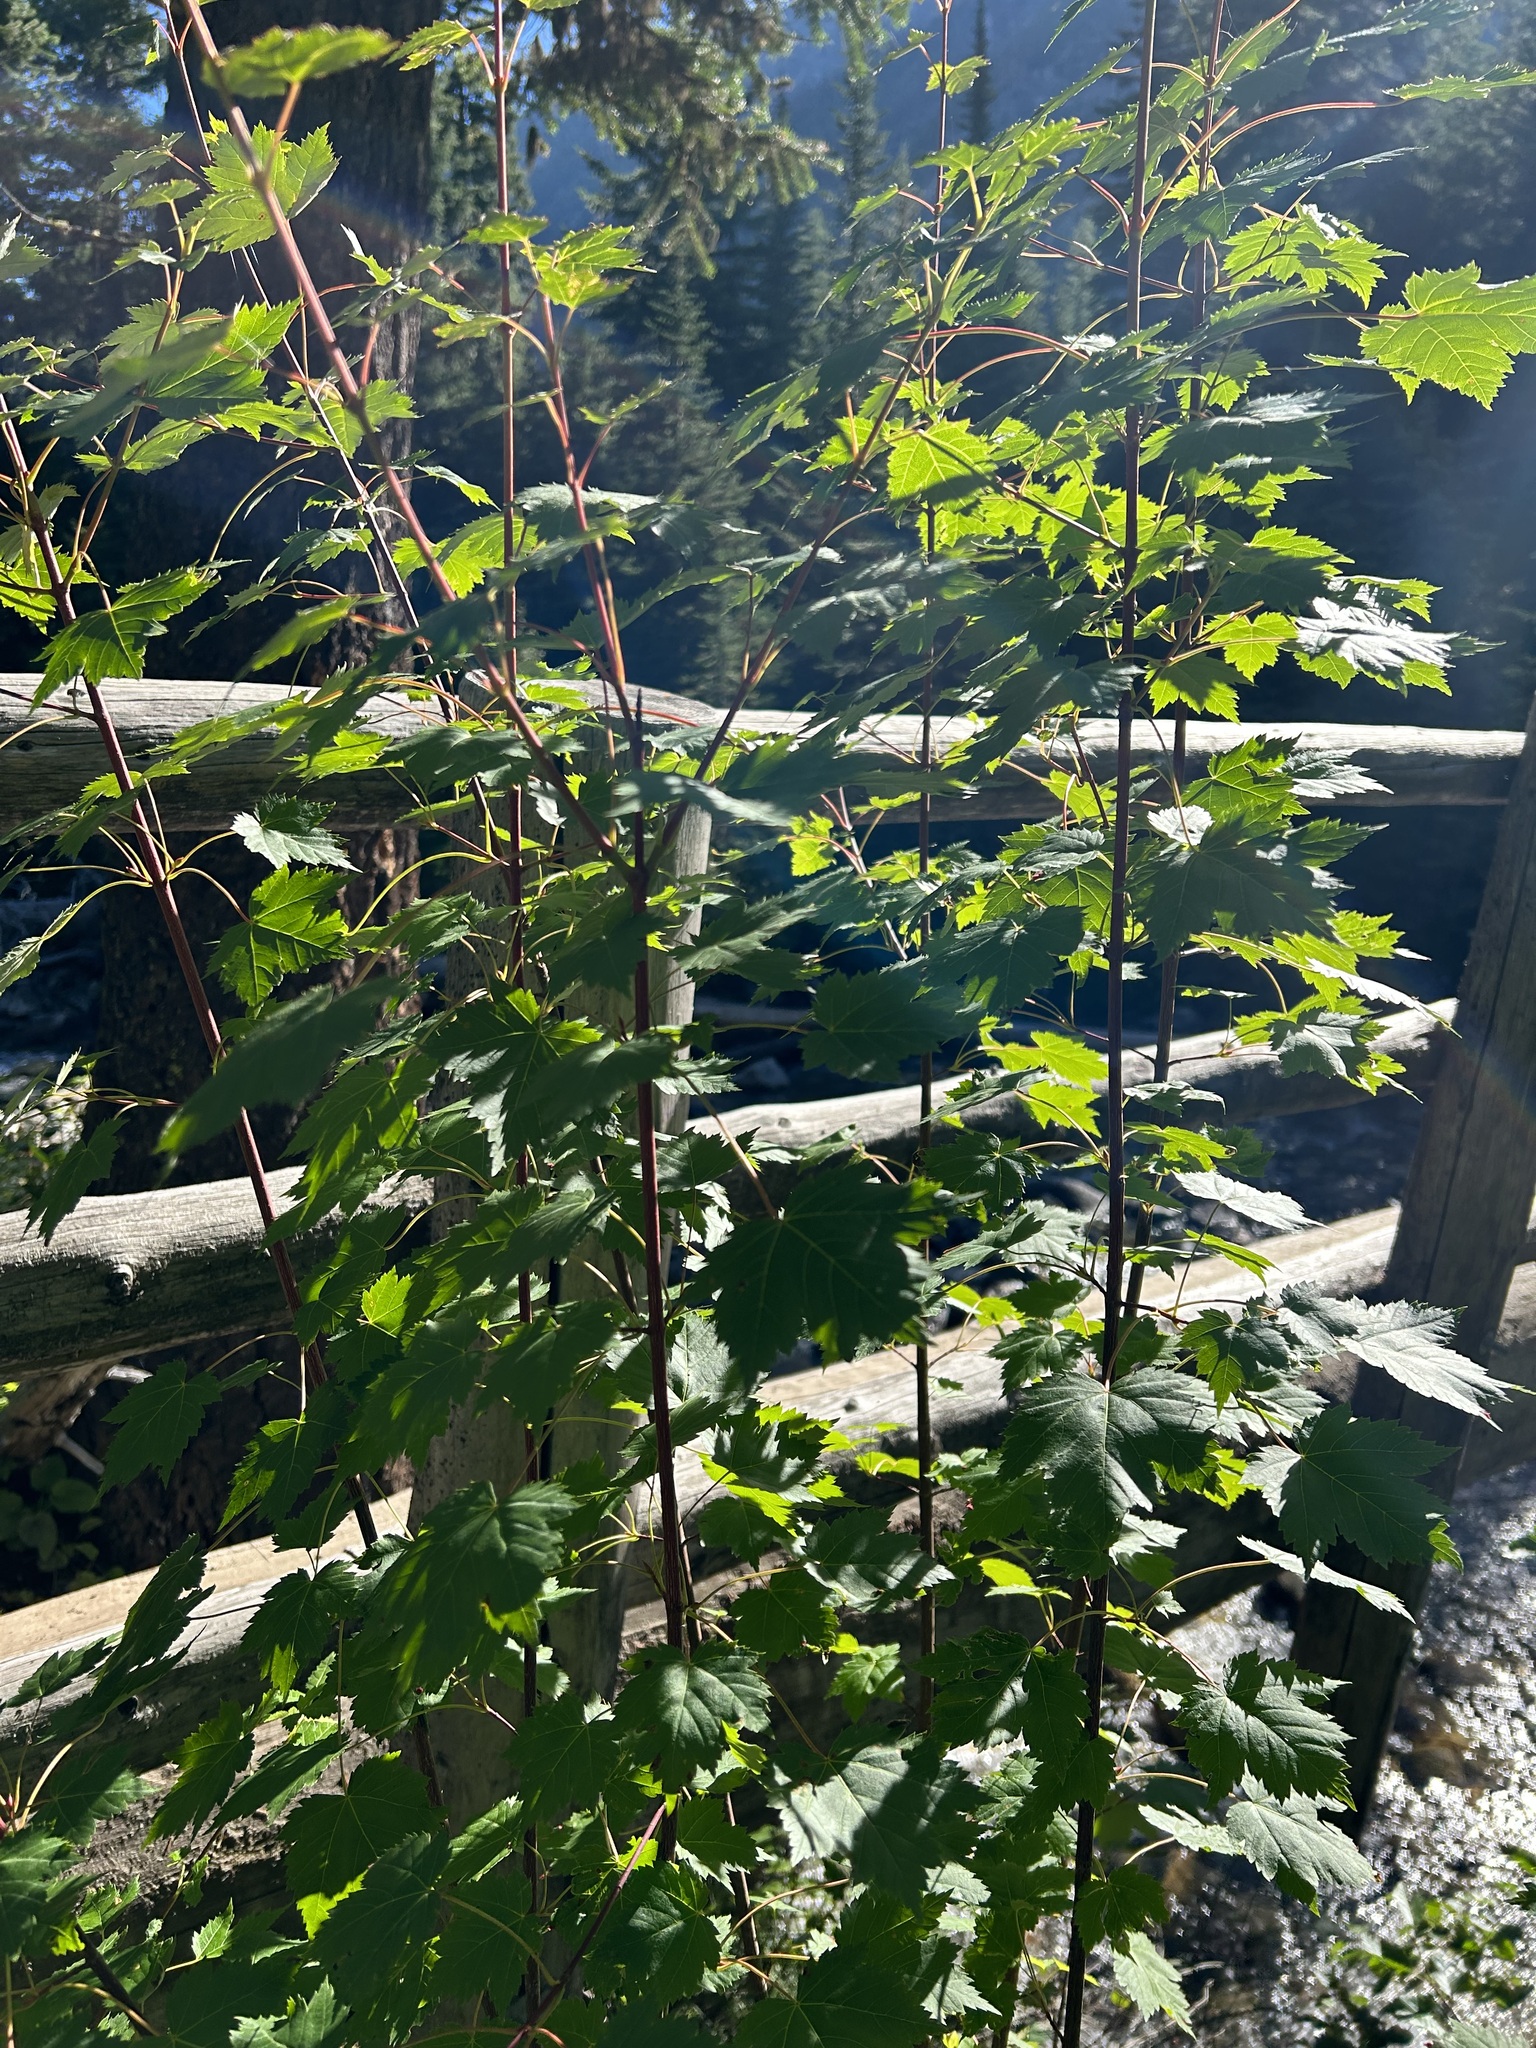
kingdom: Plantae
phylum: Tracheophyta
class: Magnoliopsida
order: Sapindales
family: Sapindaceae
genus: Acer
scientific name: Acer glabrum
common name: Rocky mountain maple
